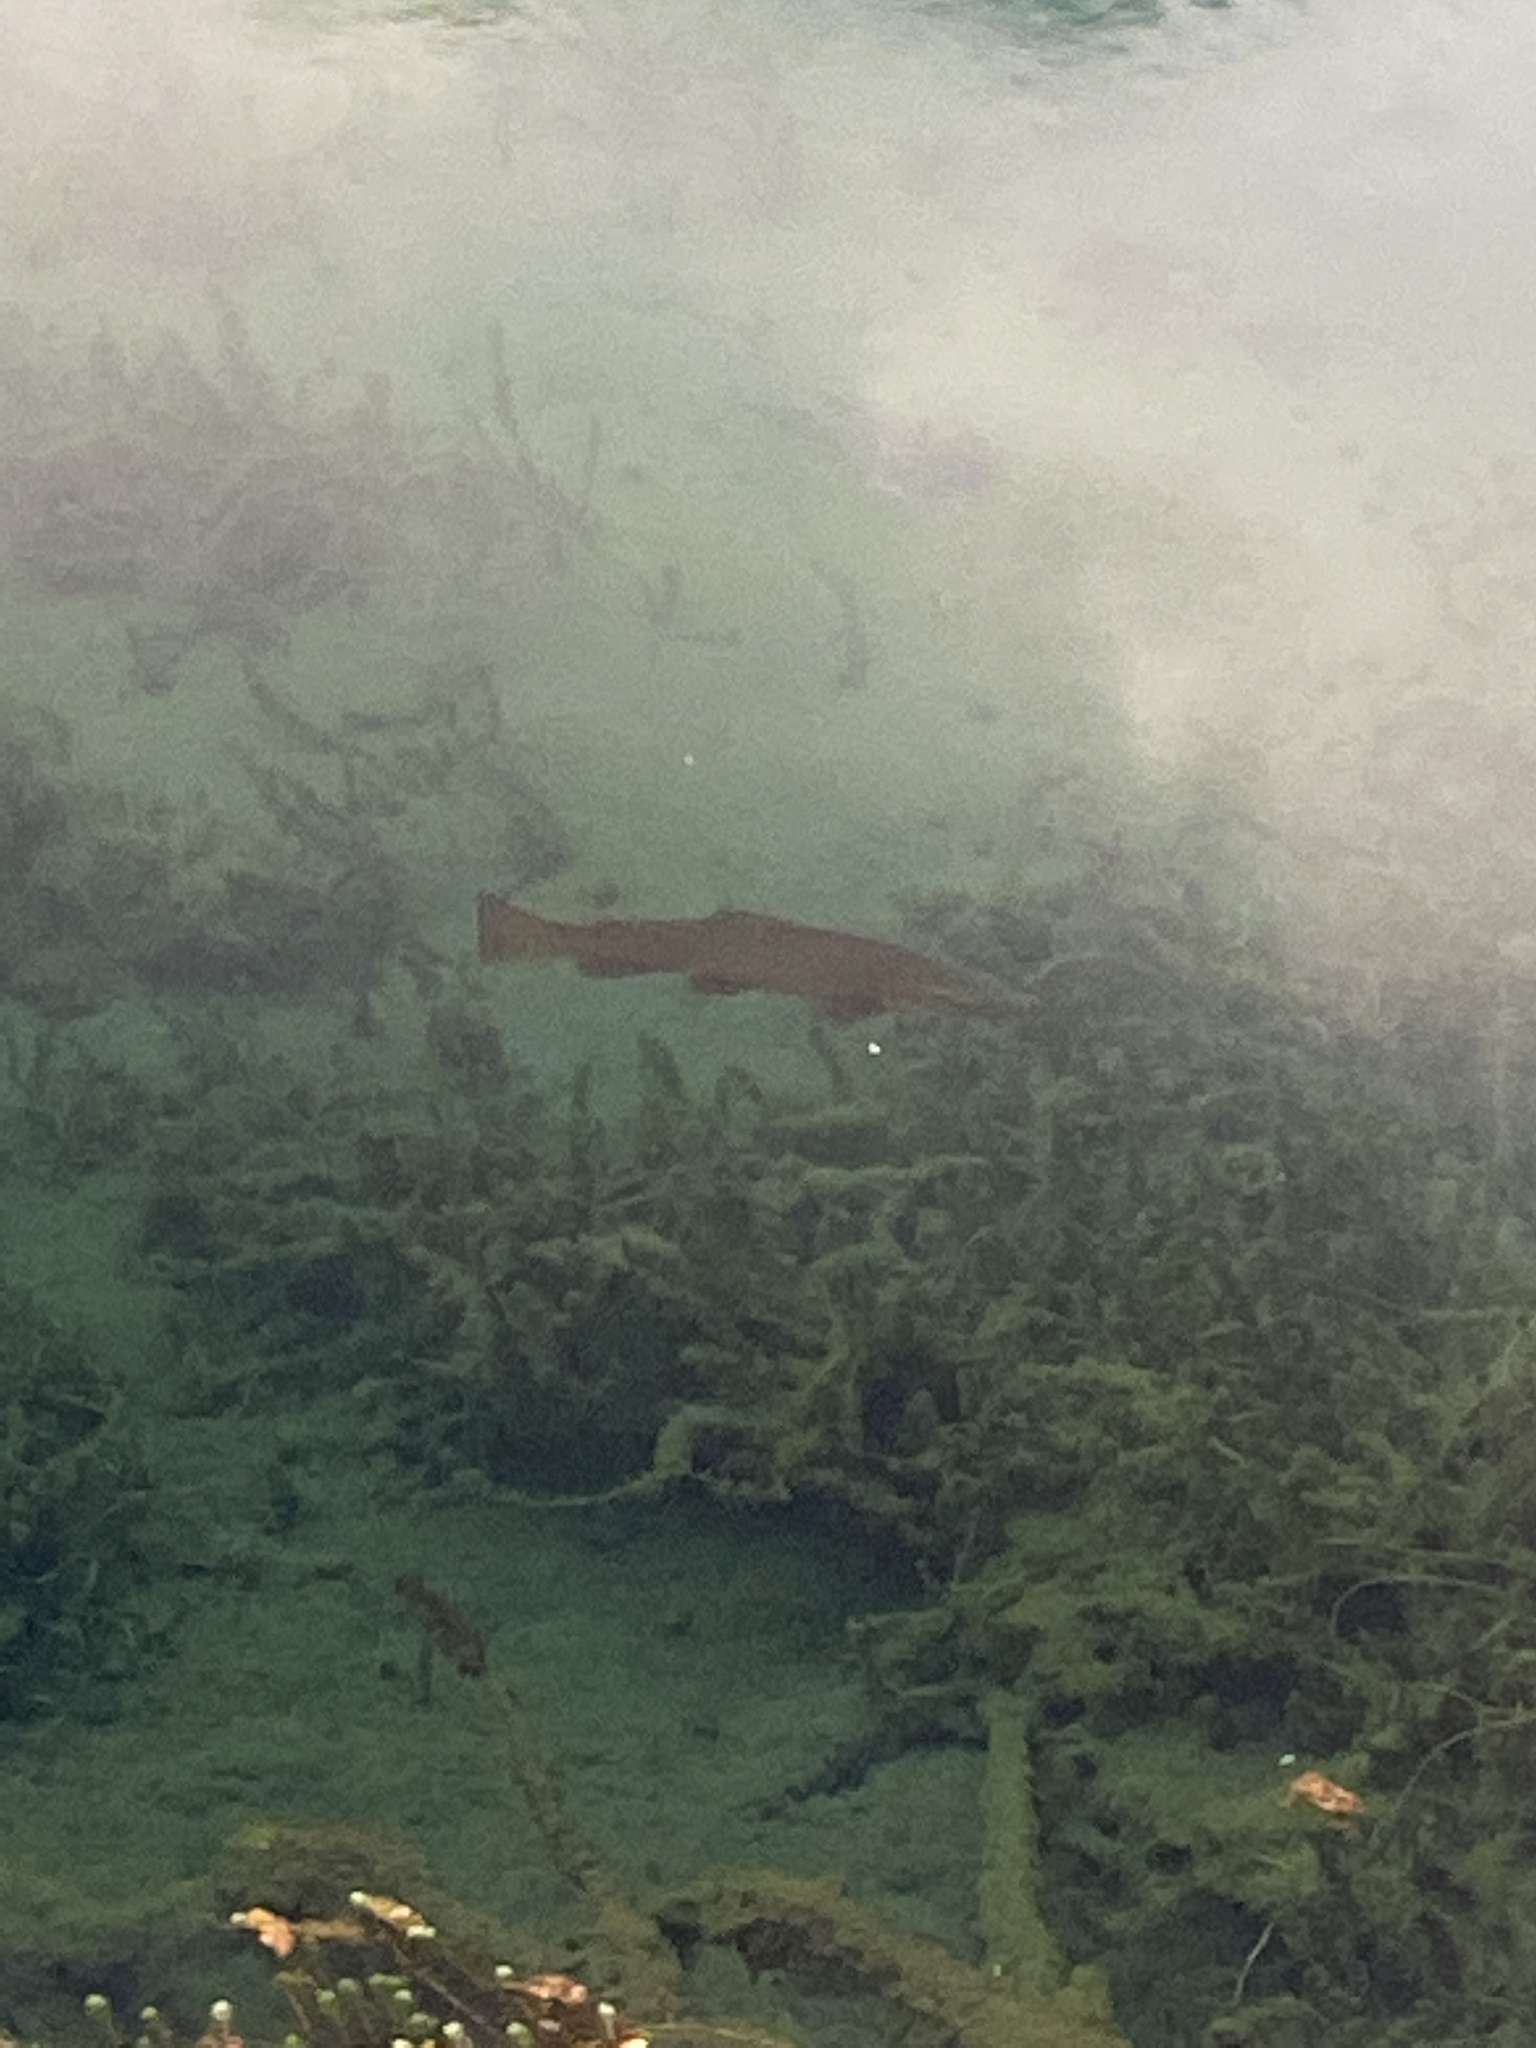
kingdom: Animalia
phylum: Chordata
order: Salmoniformes
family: Salmonidae
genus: Salmo
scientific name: Salmo trutta
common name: Brown trout
